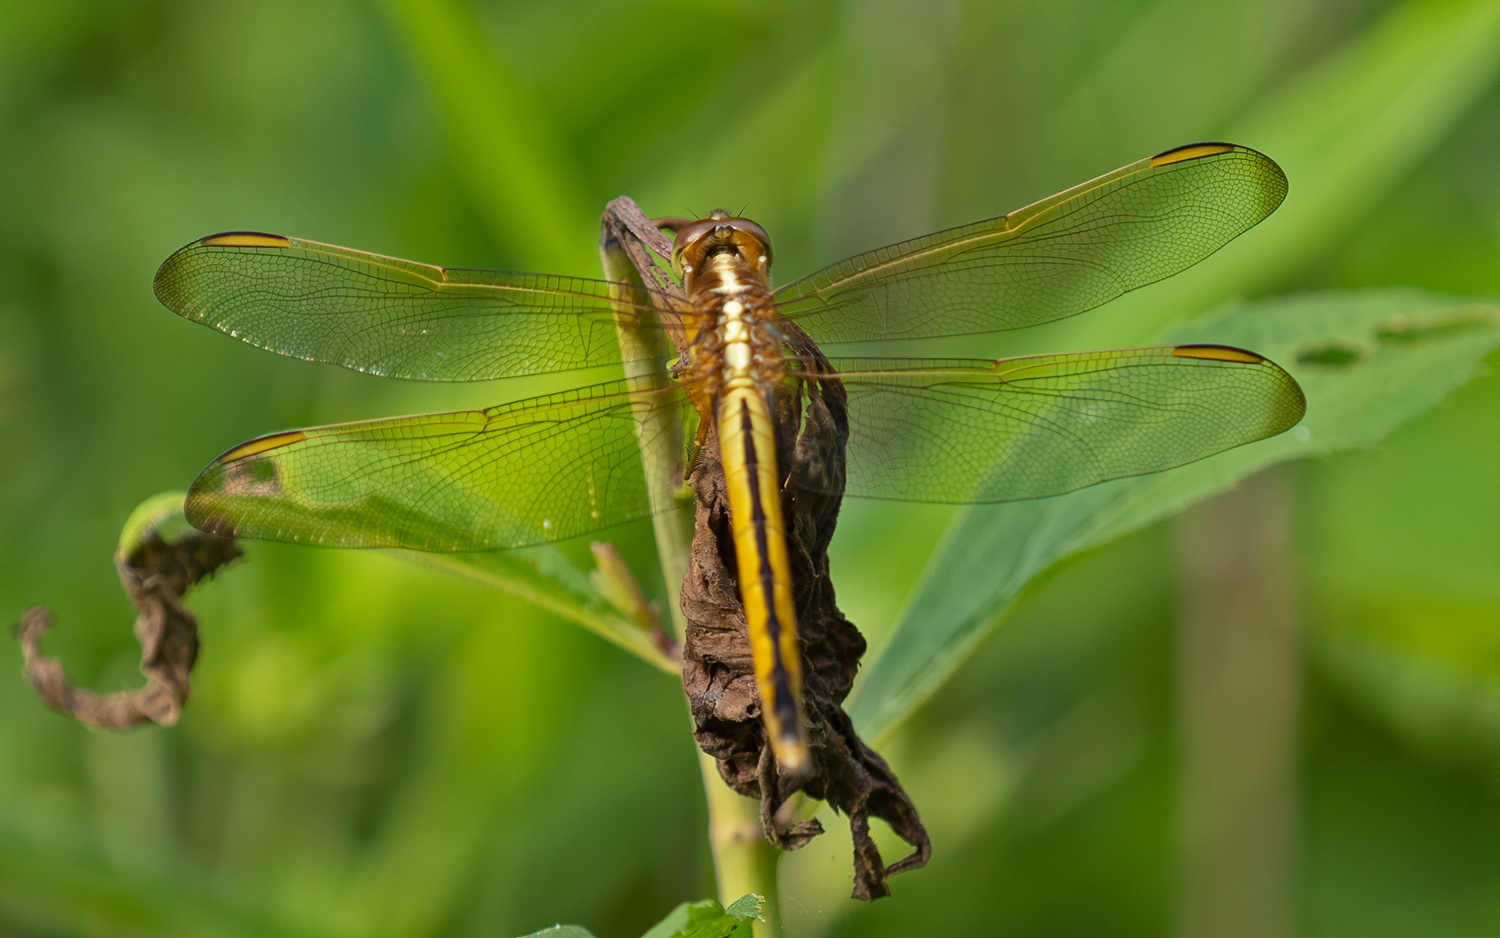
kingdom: Animalia
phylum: Arthropoda
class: Insecta
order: Odonata
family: Libellulidae
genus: Libellula
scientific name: Libellula needhami
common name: Needham's skimmer
